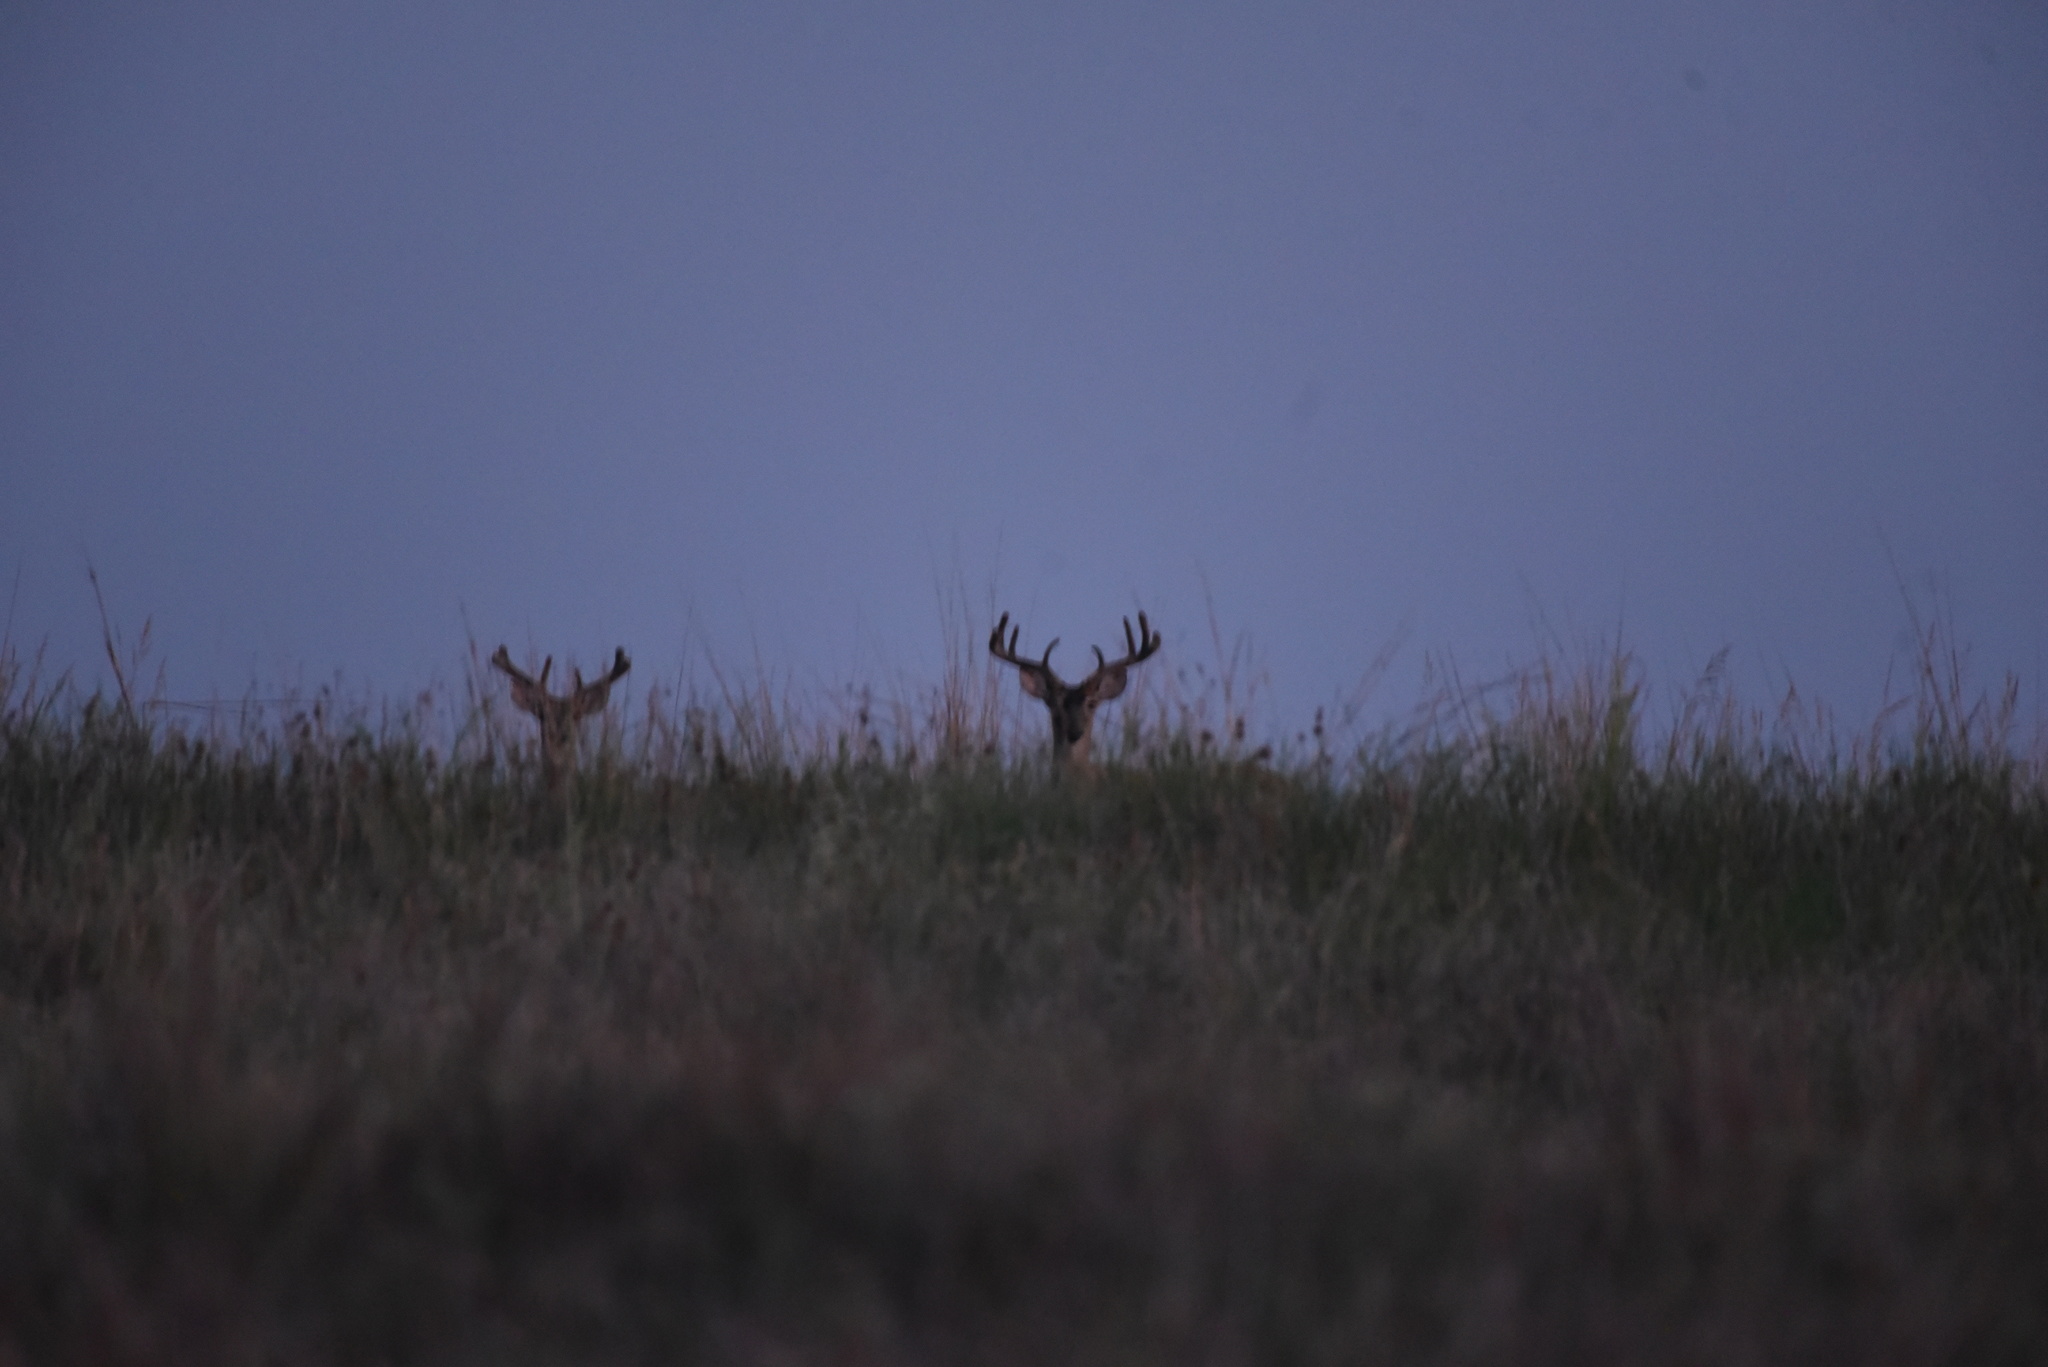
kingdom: Animalia
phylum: Chordata
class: Mammalia
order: Artiodactyla
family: Cervidae
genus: Odocoileus
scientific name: Odocoileus virginianus
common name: White-tailed deer
